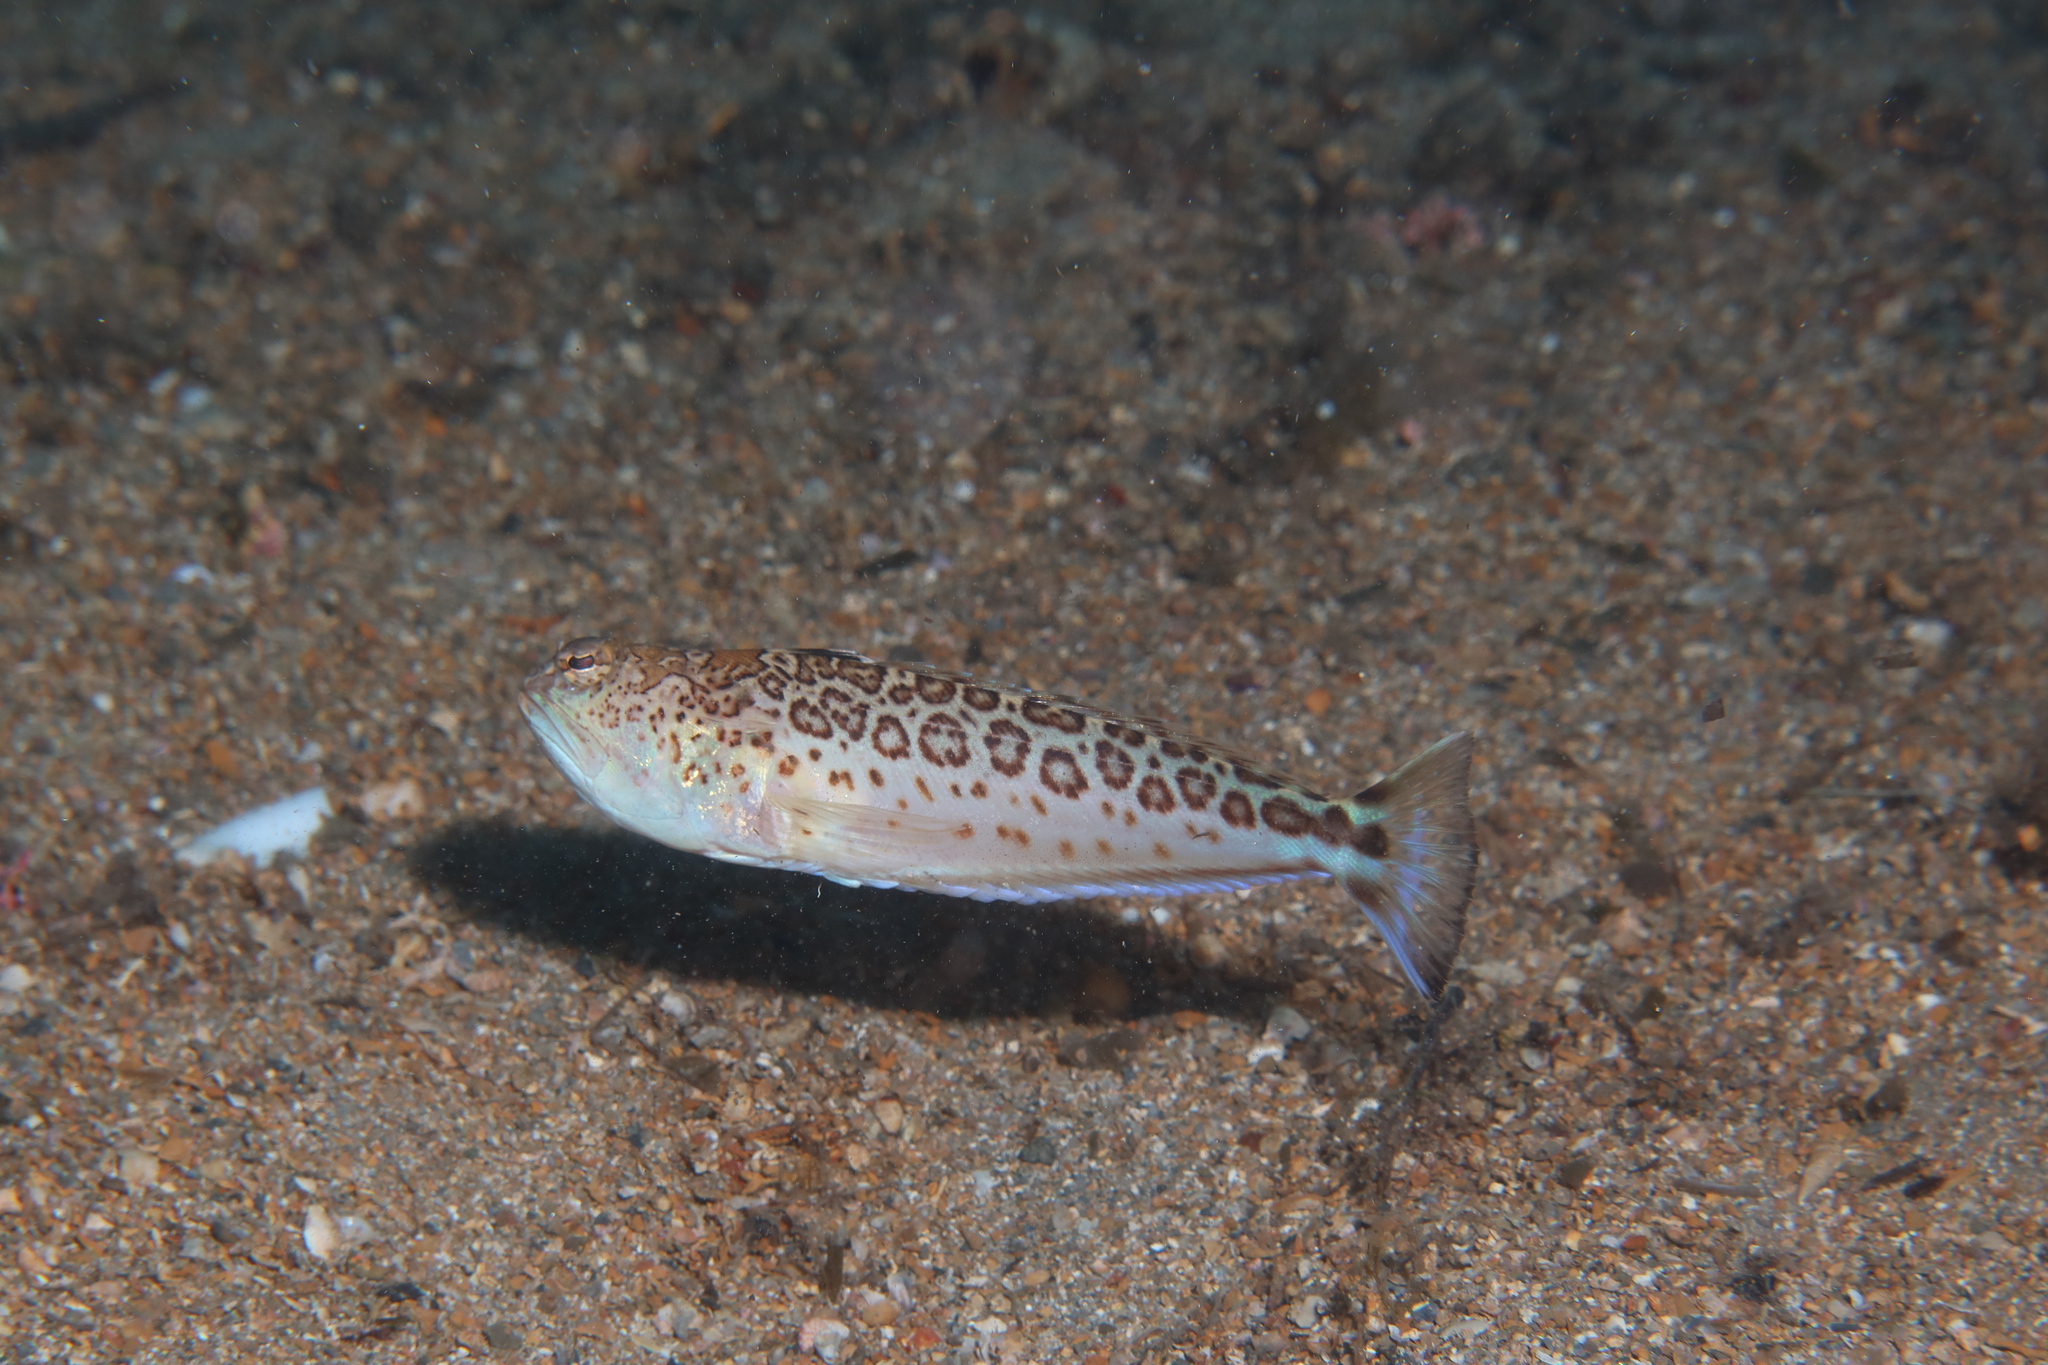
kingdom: Animalia
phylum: Chordata
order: Perciformes
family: Trachinidae
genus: Trachinus
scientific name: Trachinus radiatus
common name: Starry weever
